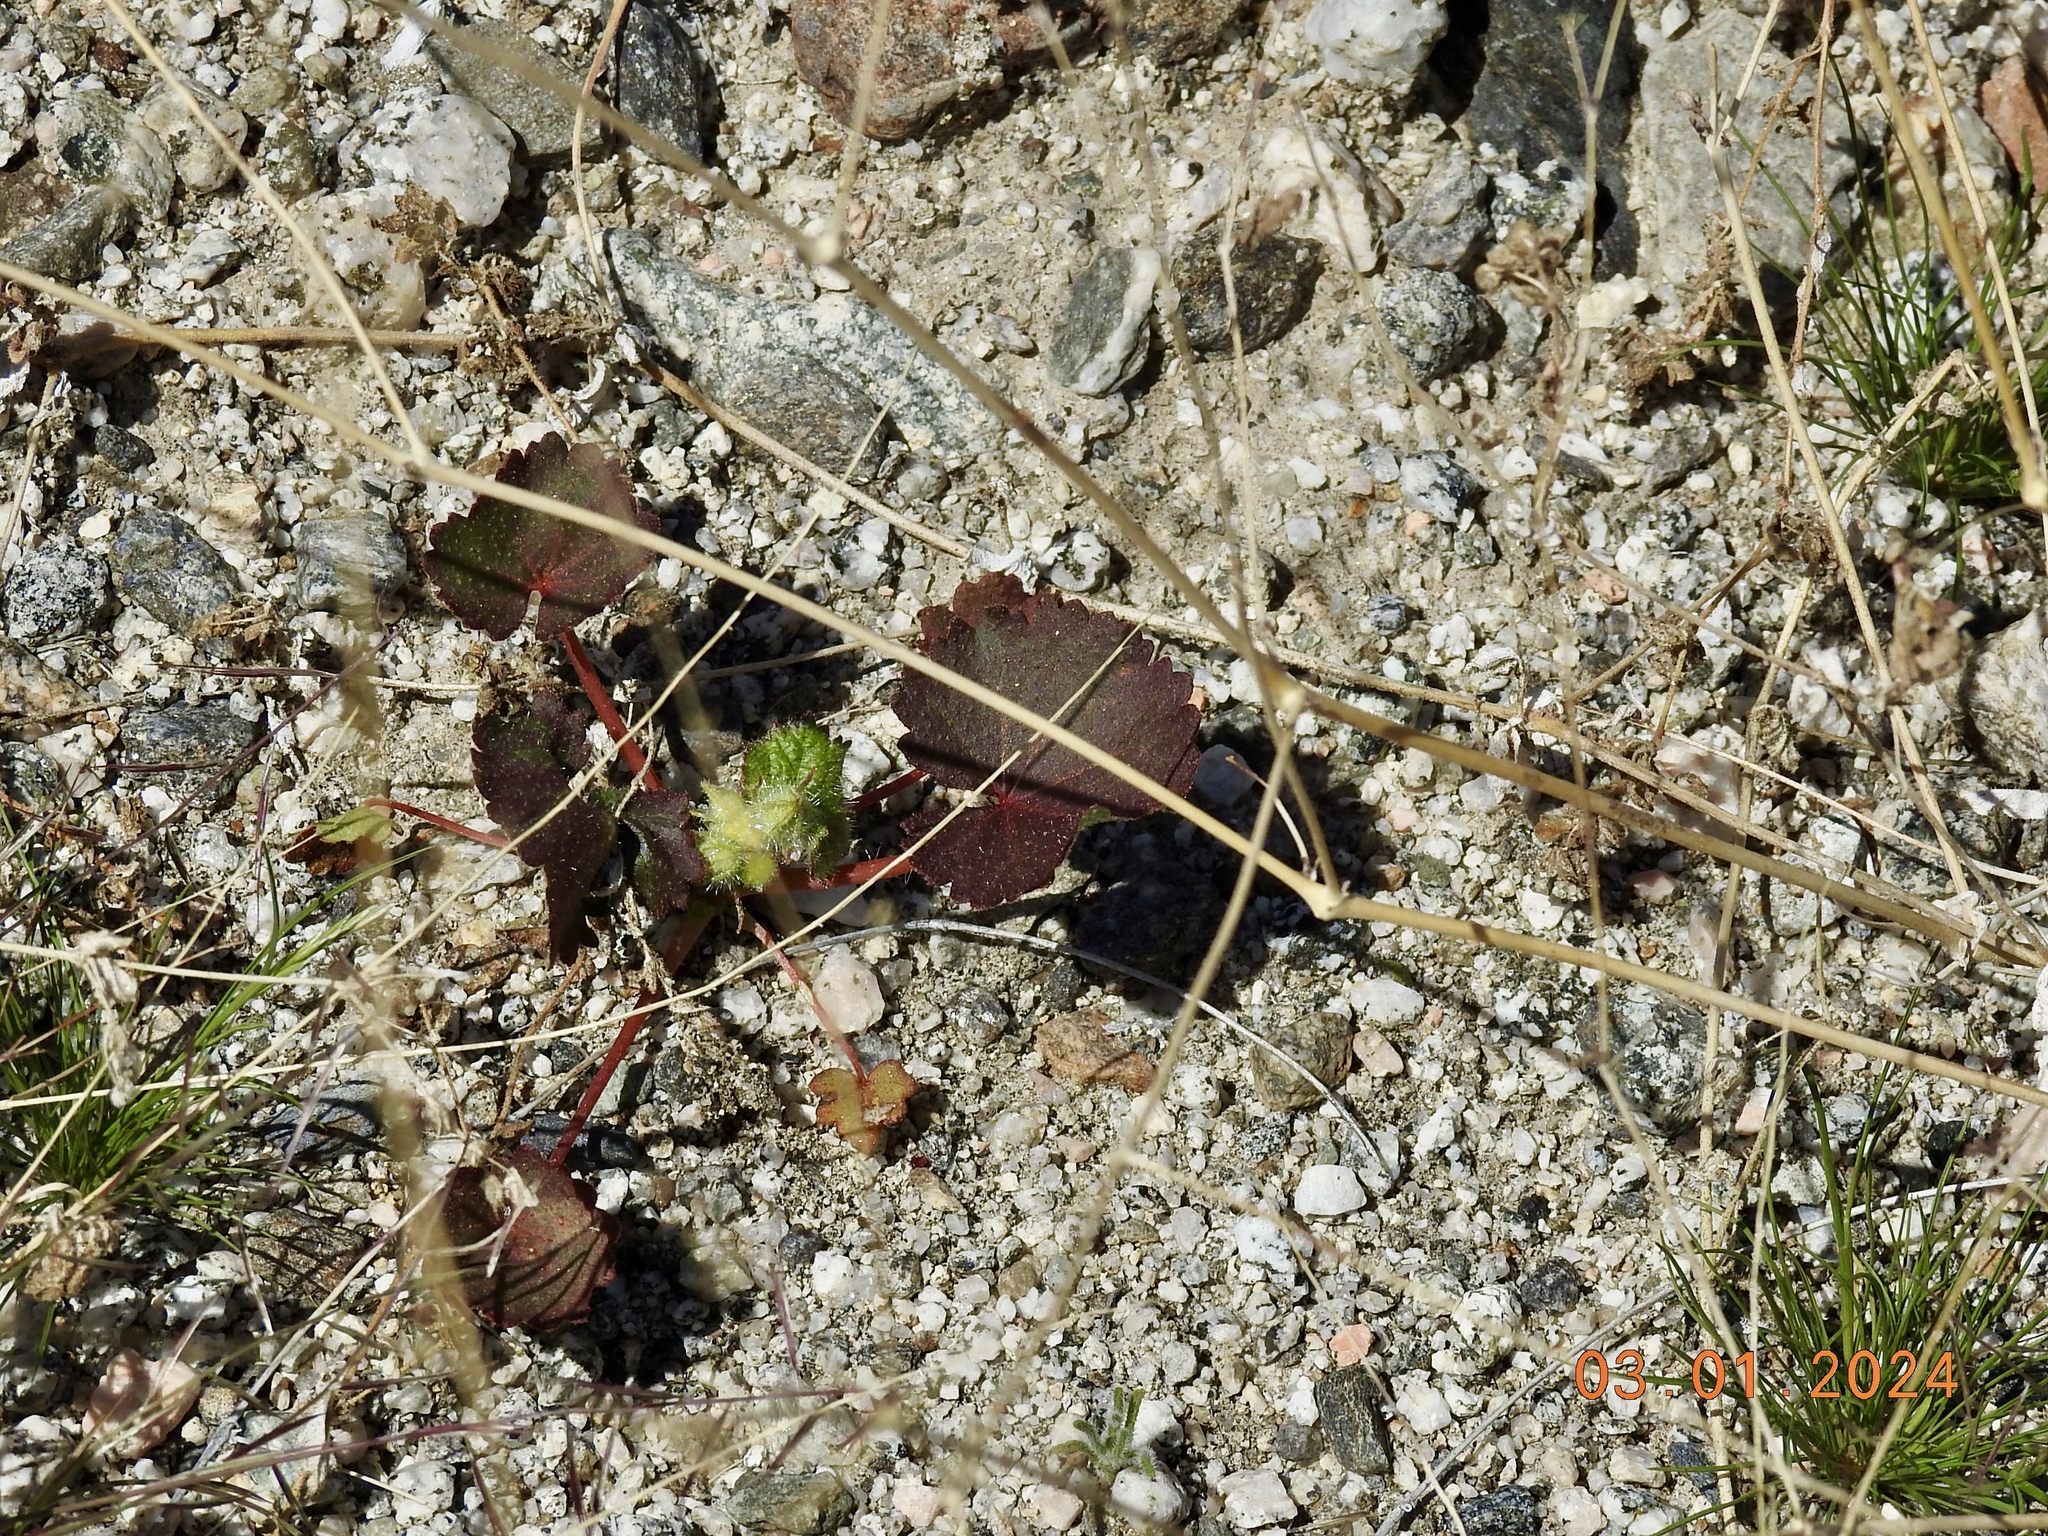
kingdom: Plantae
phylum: Tracheophyta
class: Magnoliopsida
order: Malvales
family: Malvaceae
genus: Eremalche
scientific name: Eremalche rotundifolia
